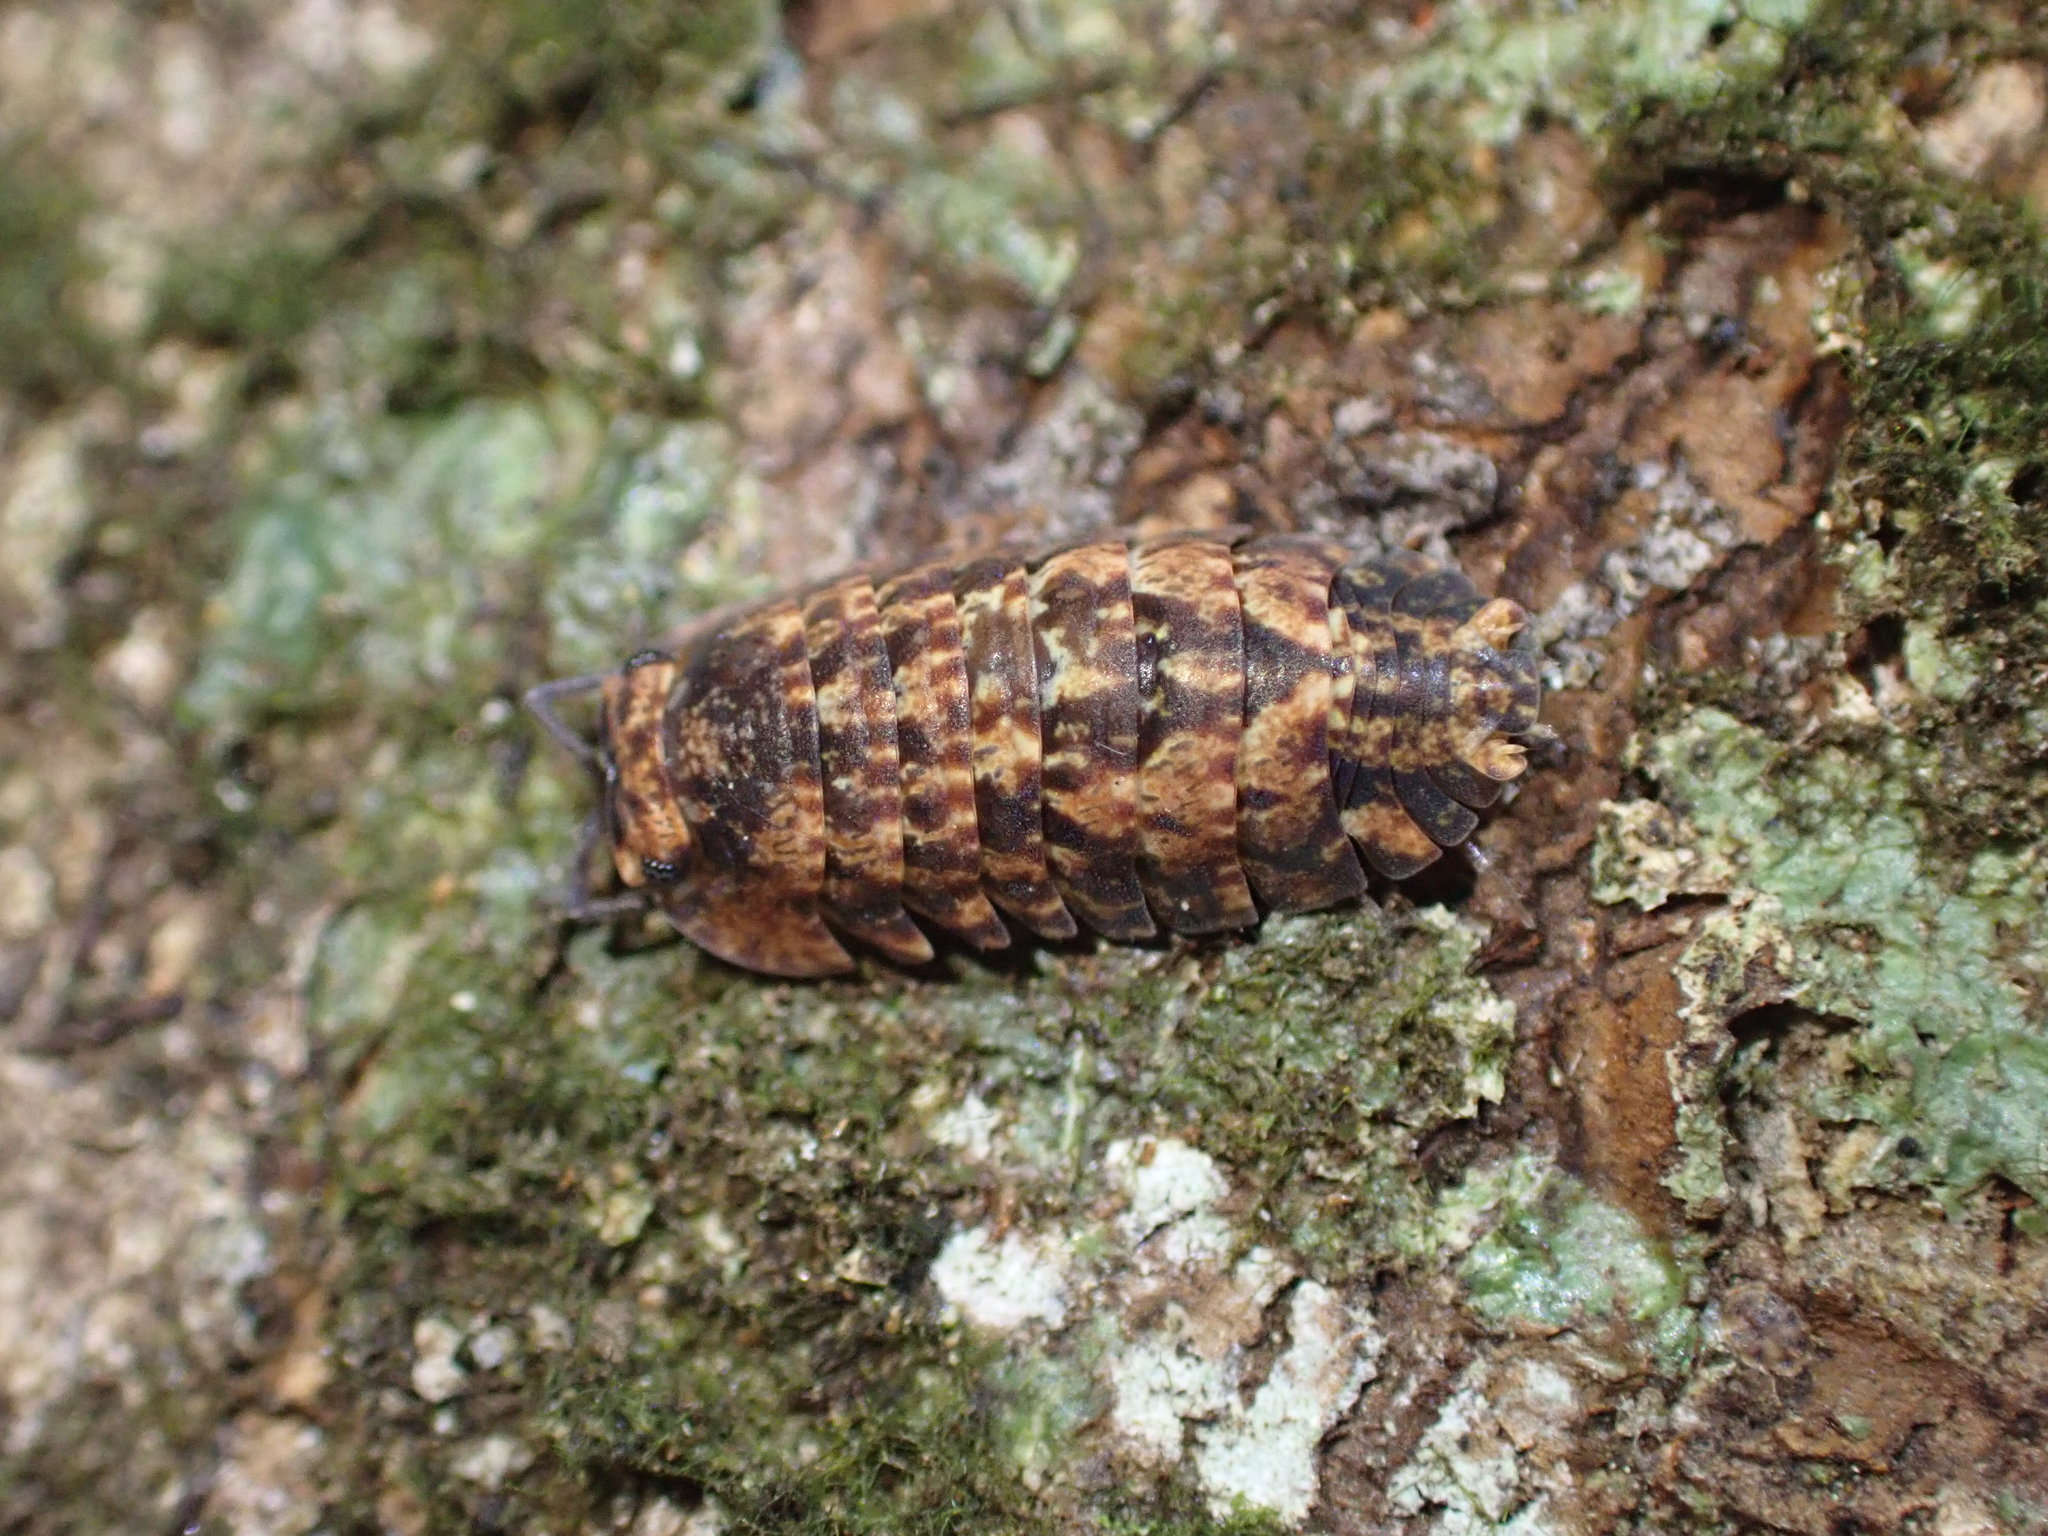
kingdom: Animalia
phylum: Arthropoda
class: Malacostraca
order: Isopoda
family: Armadillidae
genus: Cubaris
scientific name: Cubaris tarangensis
